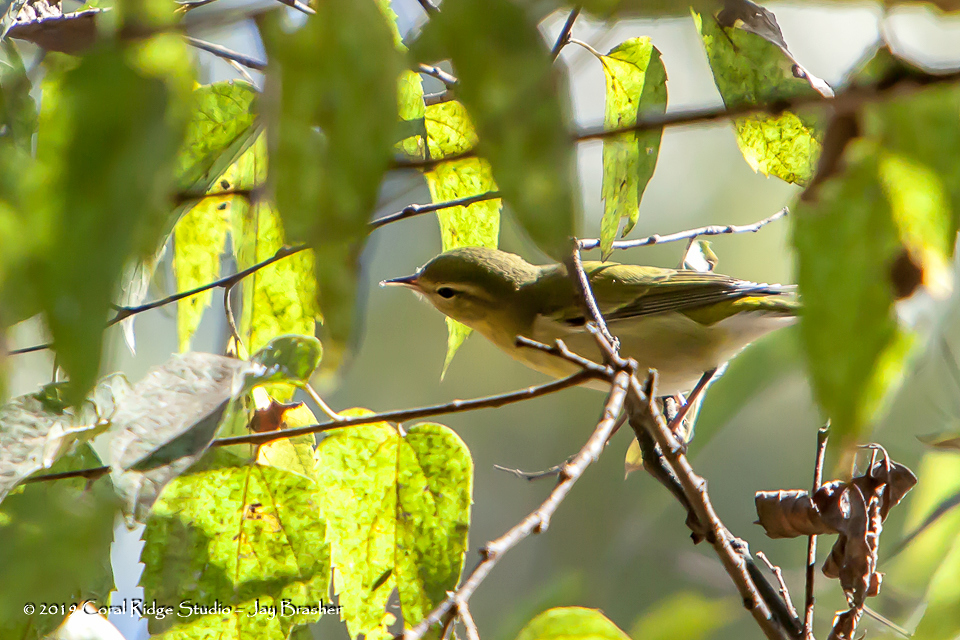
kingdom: Animalia
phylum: Chordata
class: Aves
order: Passeriformes
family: Parulidae
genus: Leiothlypis
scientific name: Leiothlypis peregrina
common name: Tennessee warbler
